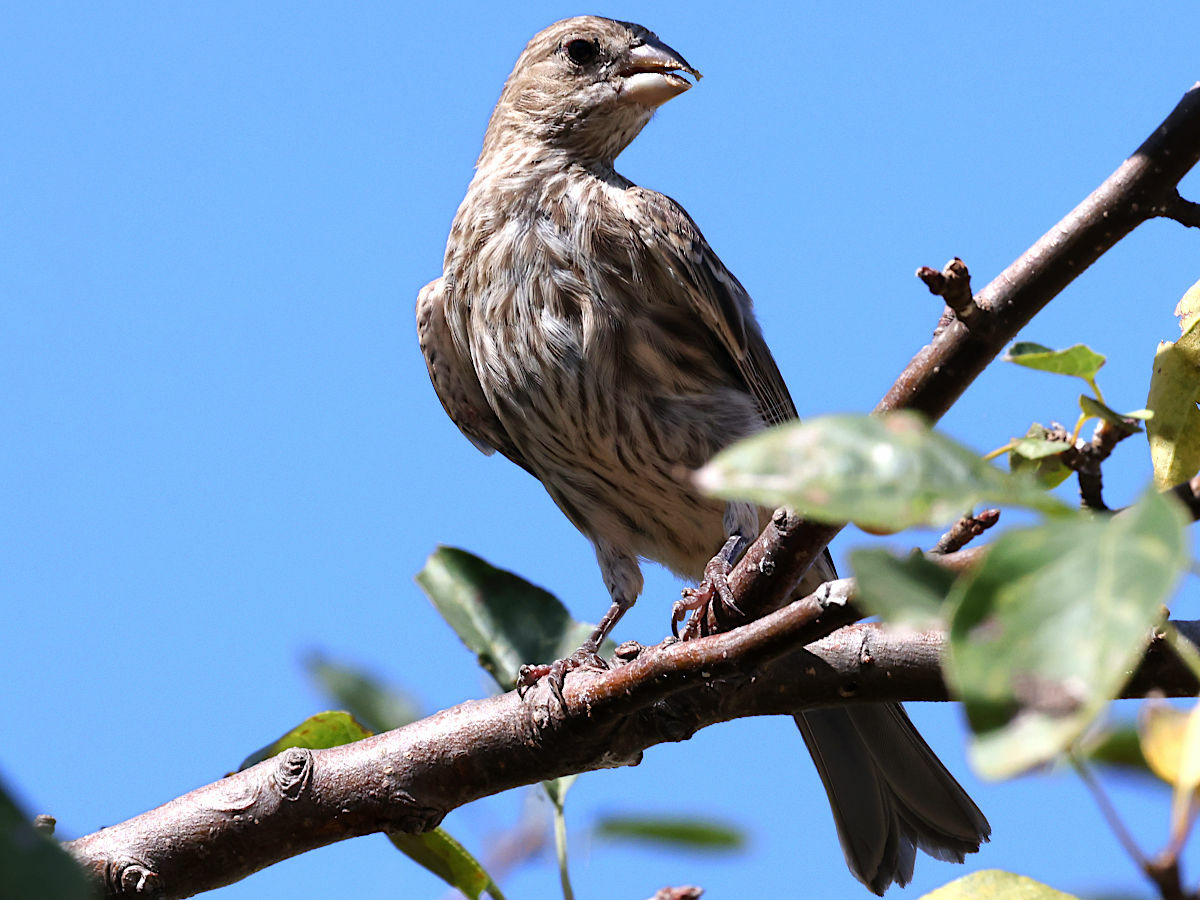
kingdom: Animalia
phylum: Chordata
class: Aves
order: Passeriformes
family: Fringillidae
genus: Haemorhous
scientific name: Haemorhous mexicanus
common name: House finch
